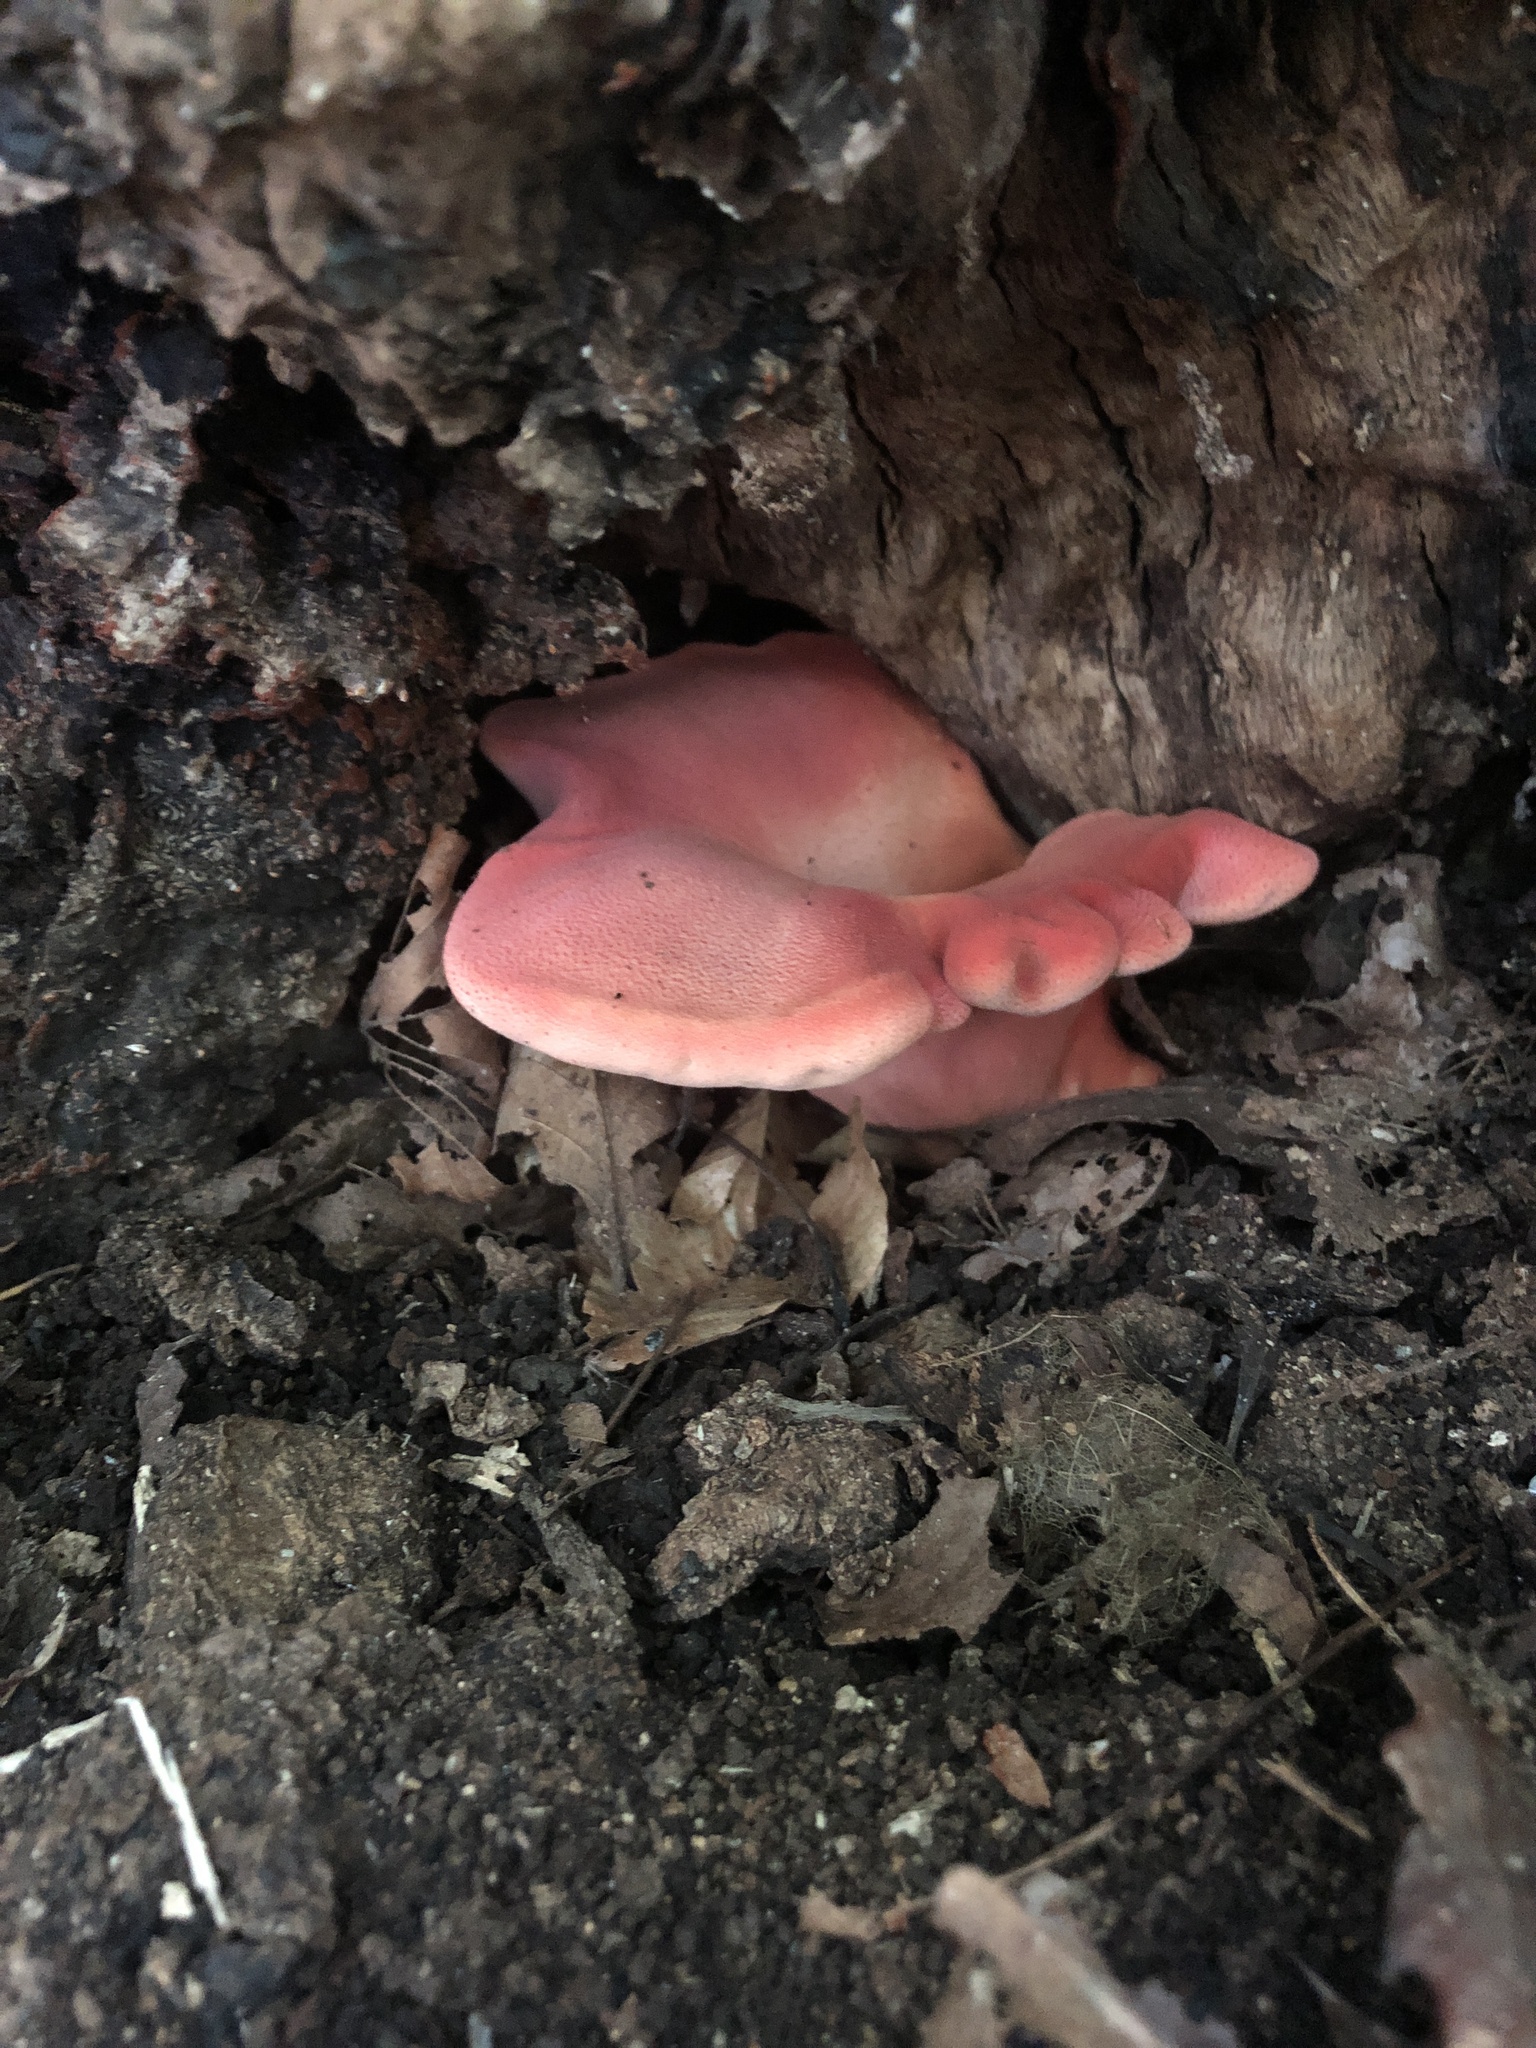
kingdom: Fungi
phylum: Basidiomycota
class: Agaricomycetes
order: Agaricales
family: Fistulinaceae
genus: Fistulina
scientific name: Fistulina hepatica
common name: Beef-steak fungus
